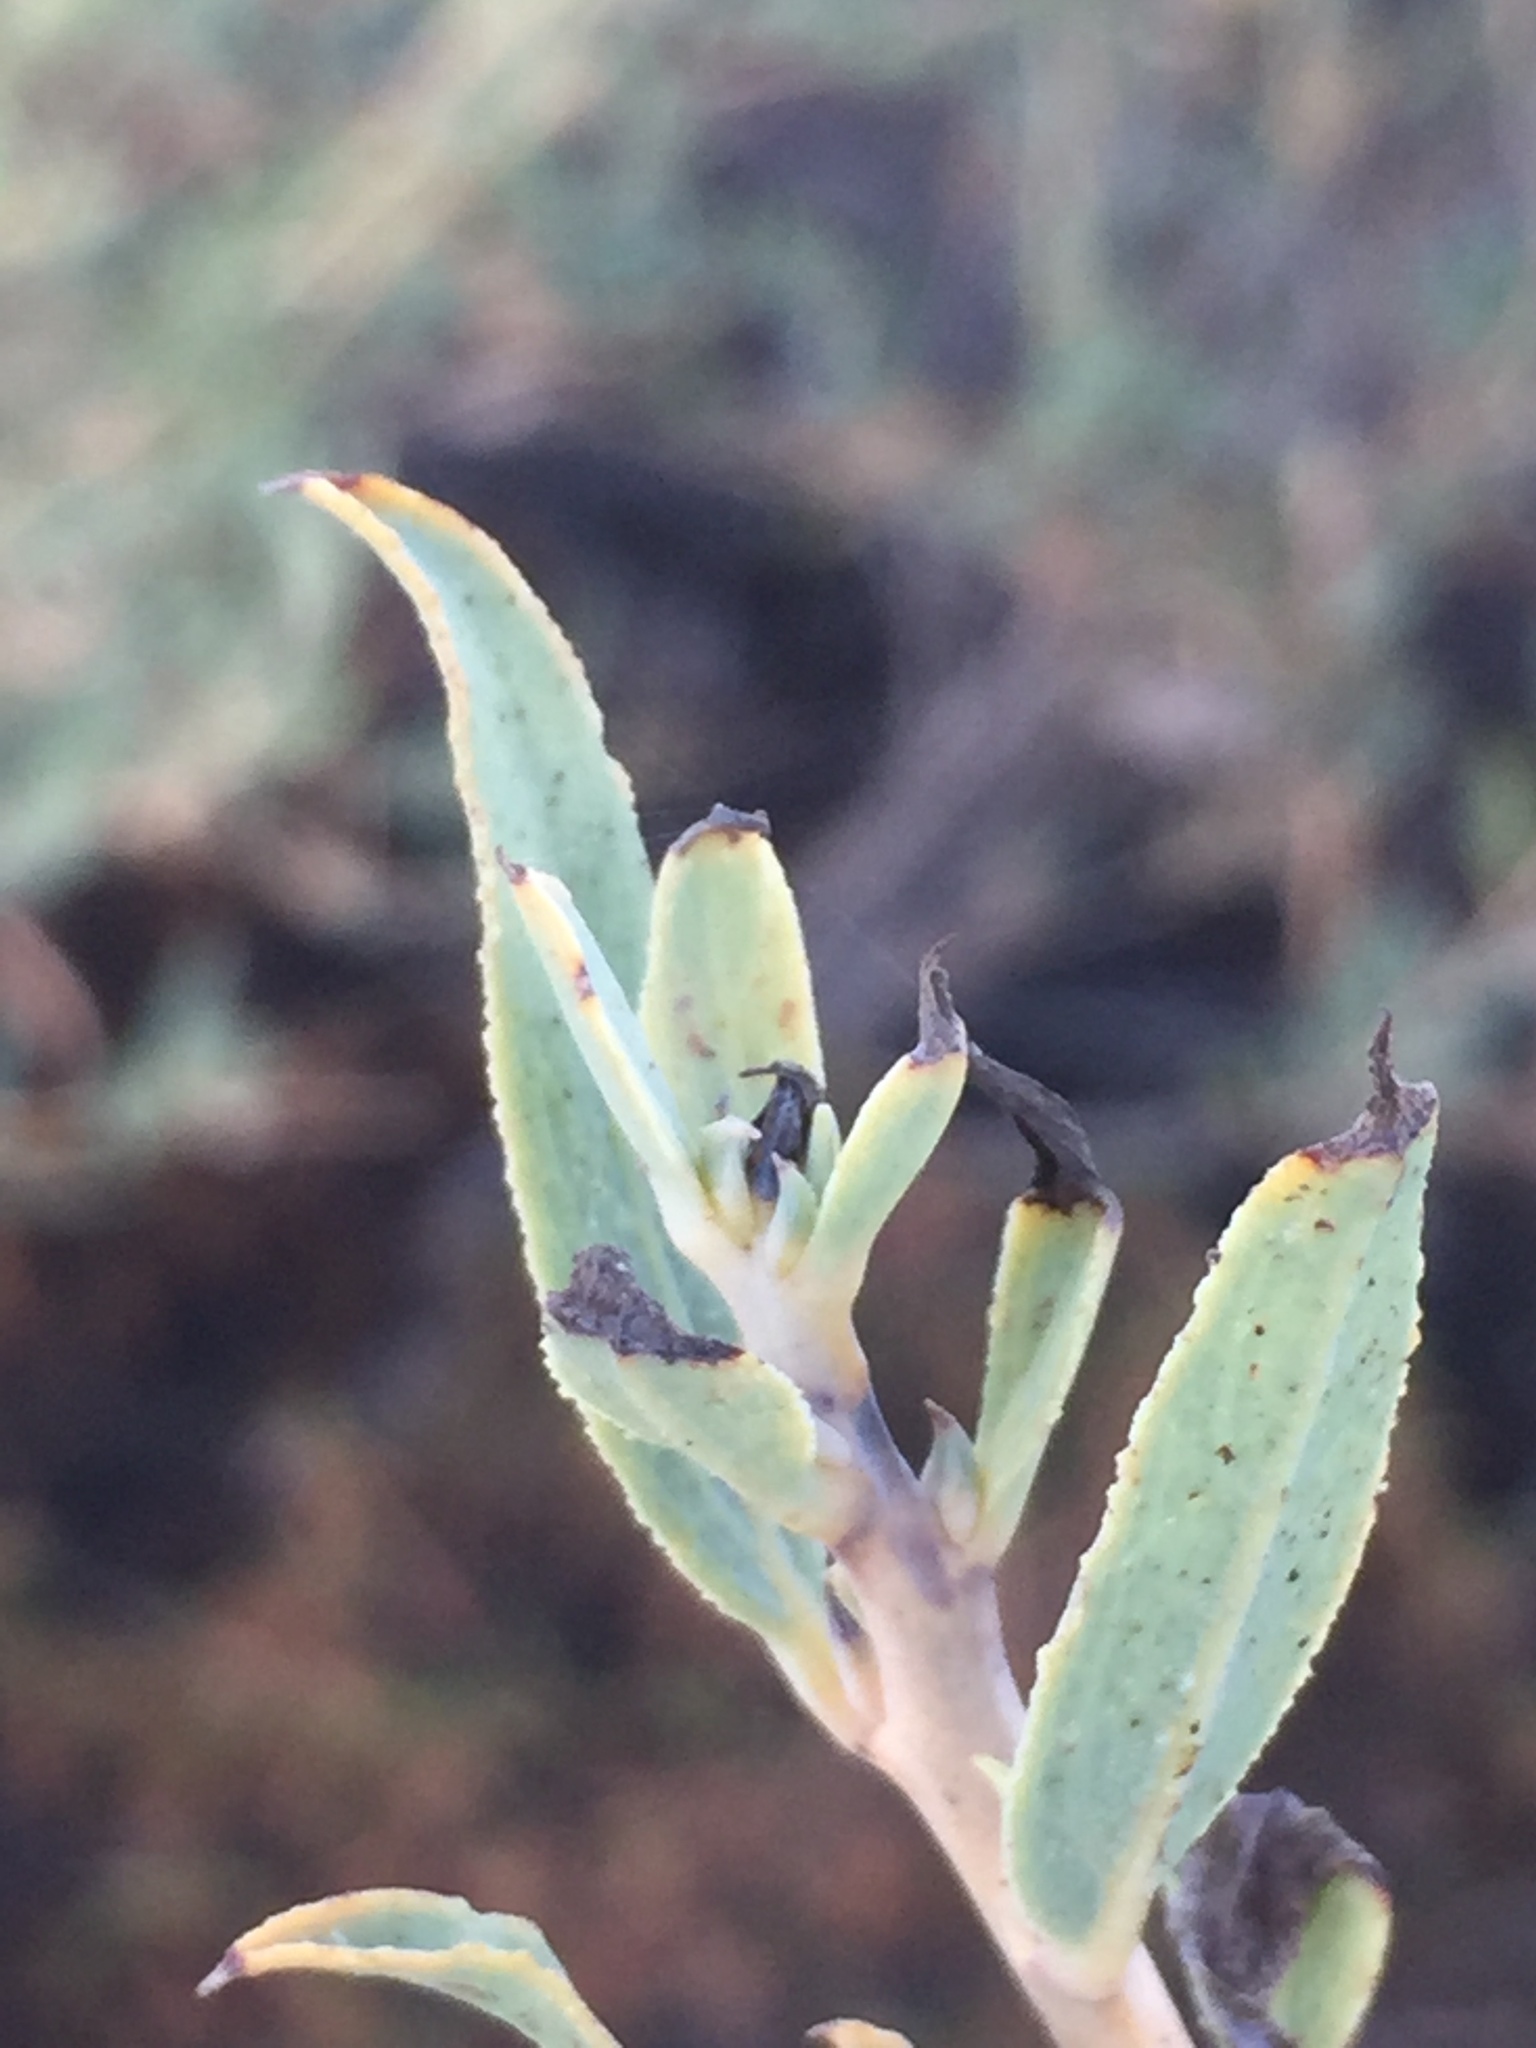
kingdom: Plantae
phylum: Tracheophyta
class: Magnoliopsida
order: Ranunculales
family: Papaveraceae
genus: Dendromecon
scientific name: Dendromecon rigida
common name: Tree poppy
